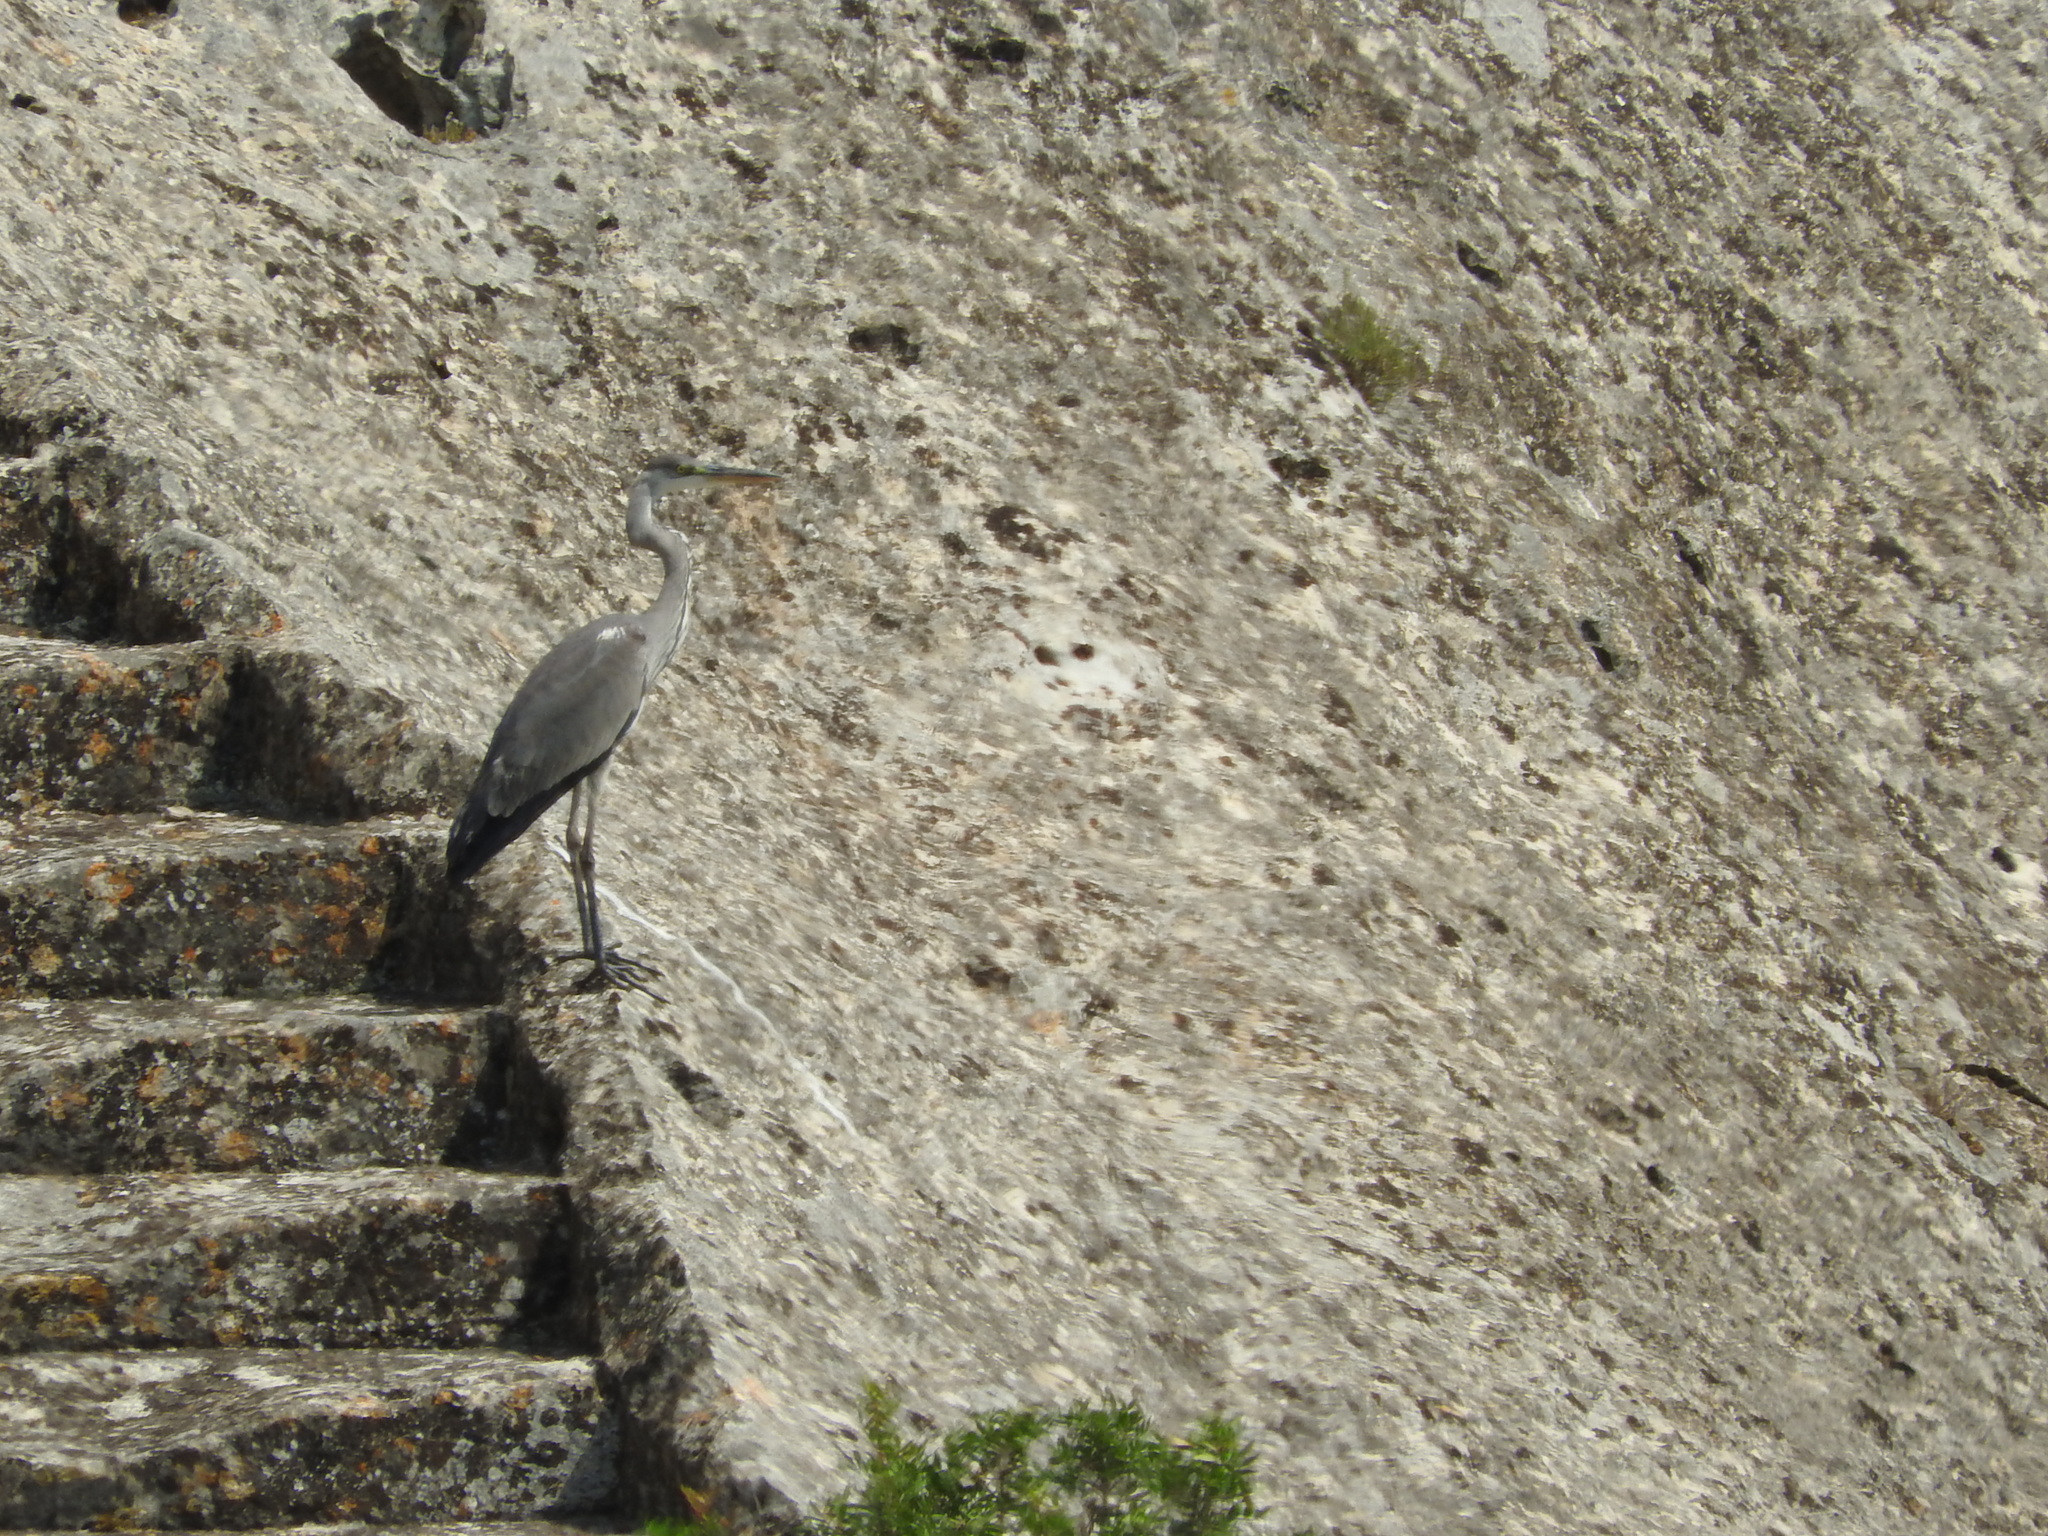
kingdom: Animalia
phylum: Chordata
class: Aves
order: Pelecaniformes
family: Ardeidae
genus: Ardea
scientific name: Ardea cinerea
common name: Grey heron
